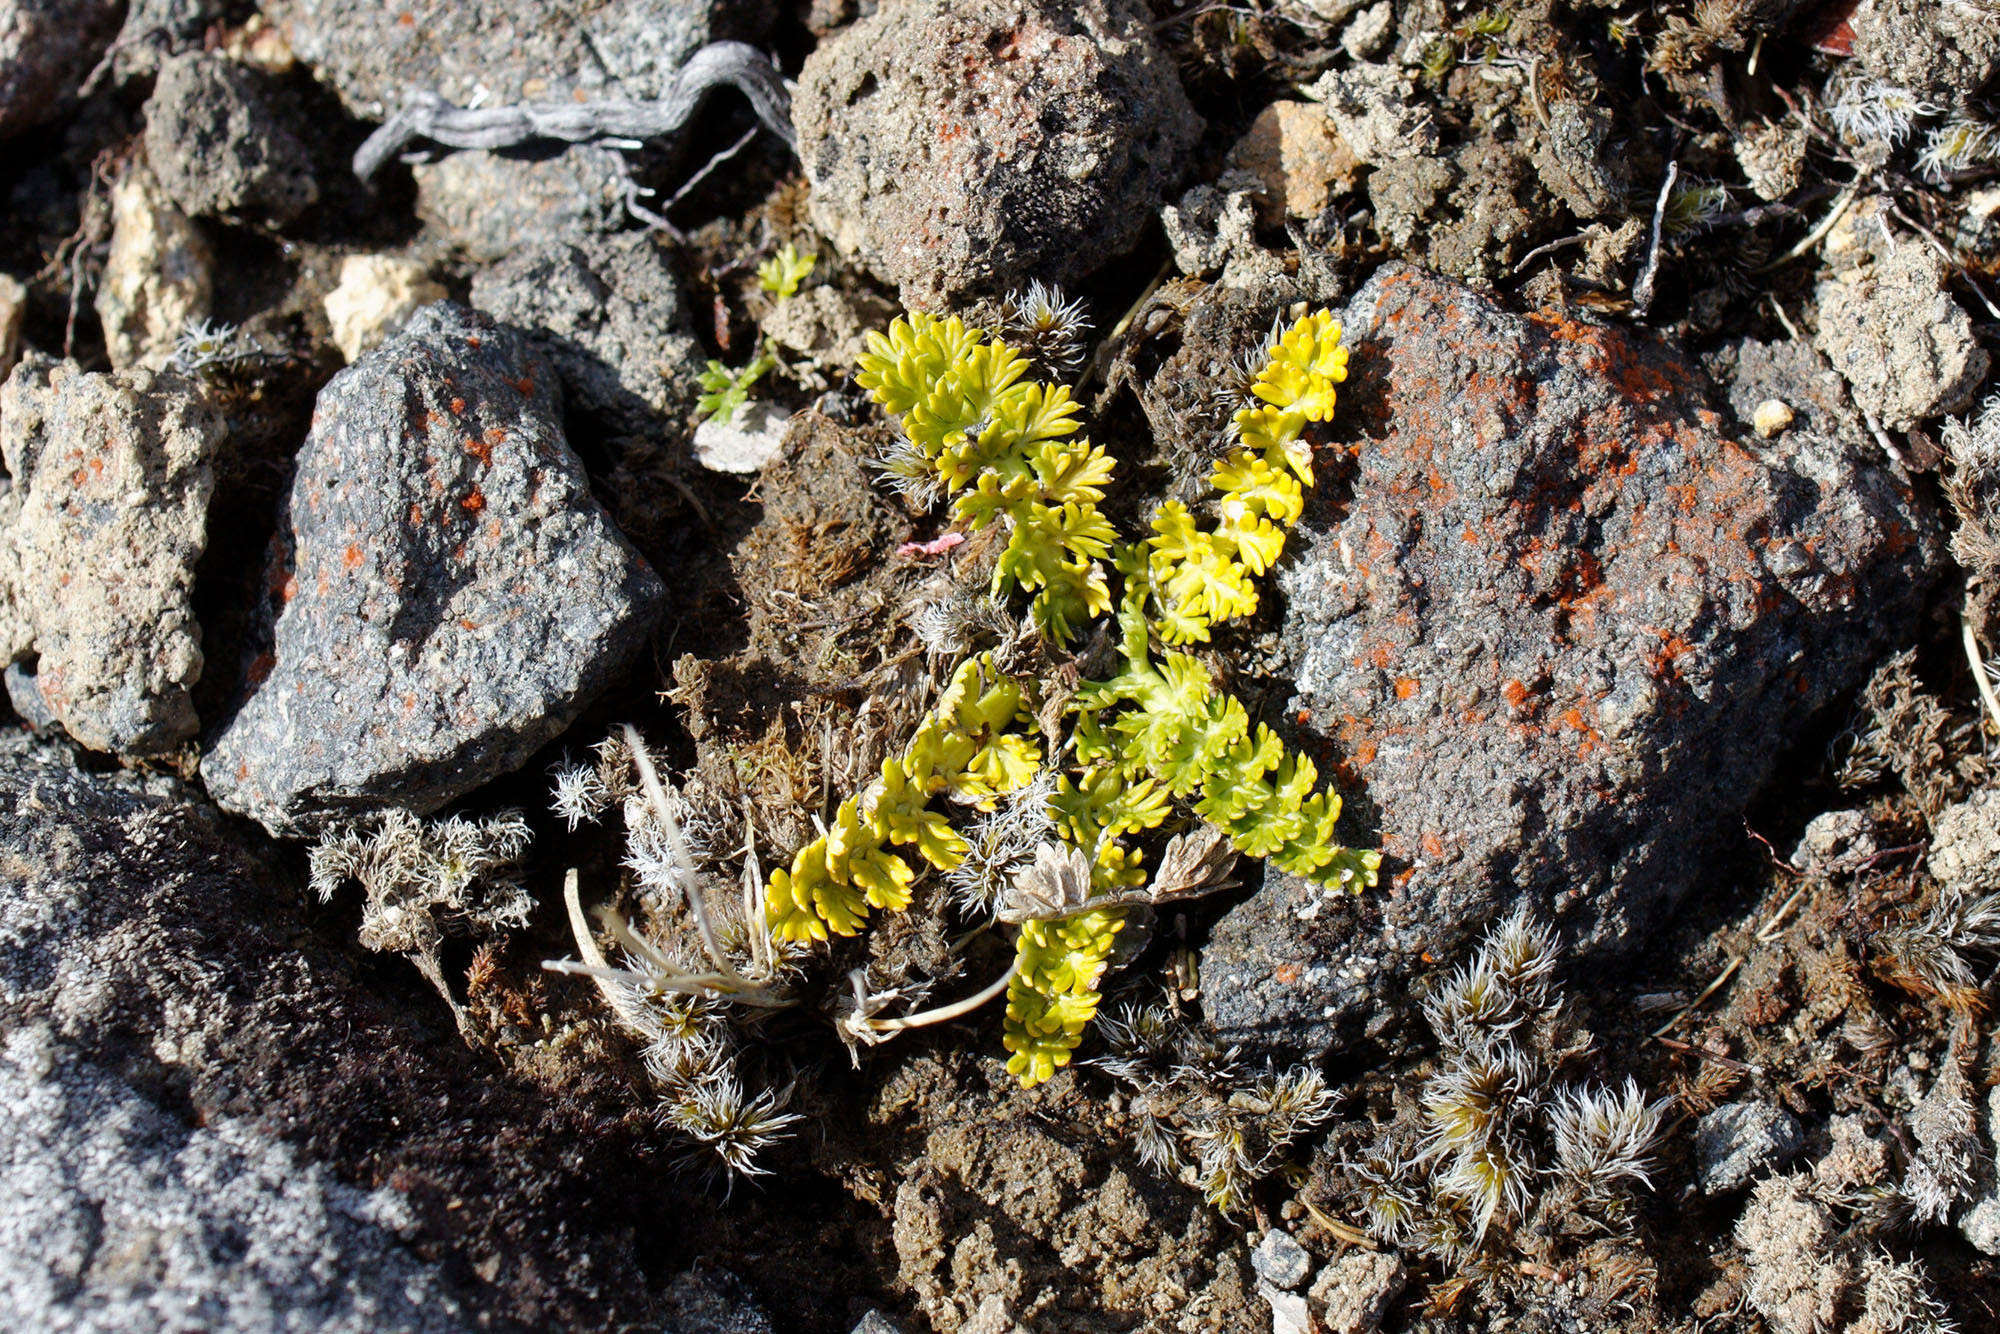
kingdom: Plantae
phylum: Tracheophyta
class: Magnoliopsida
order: Apiales
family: Apiaceae
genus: Anisotome
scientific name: Anisotome aromatica
